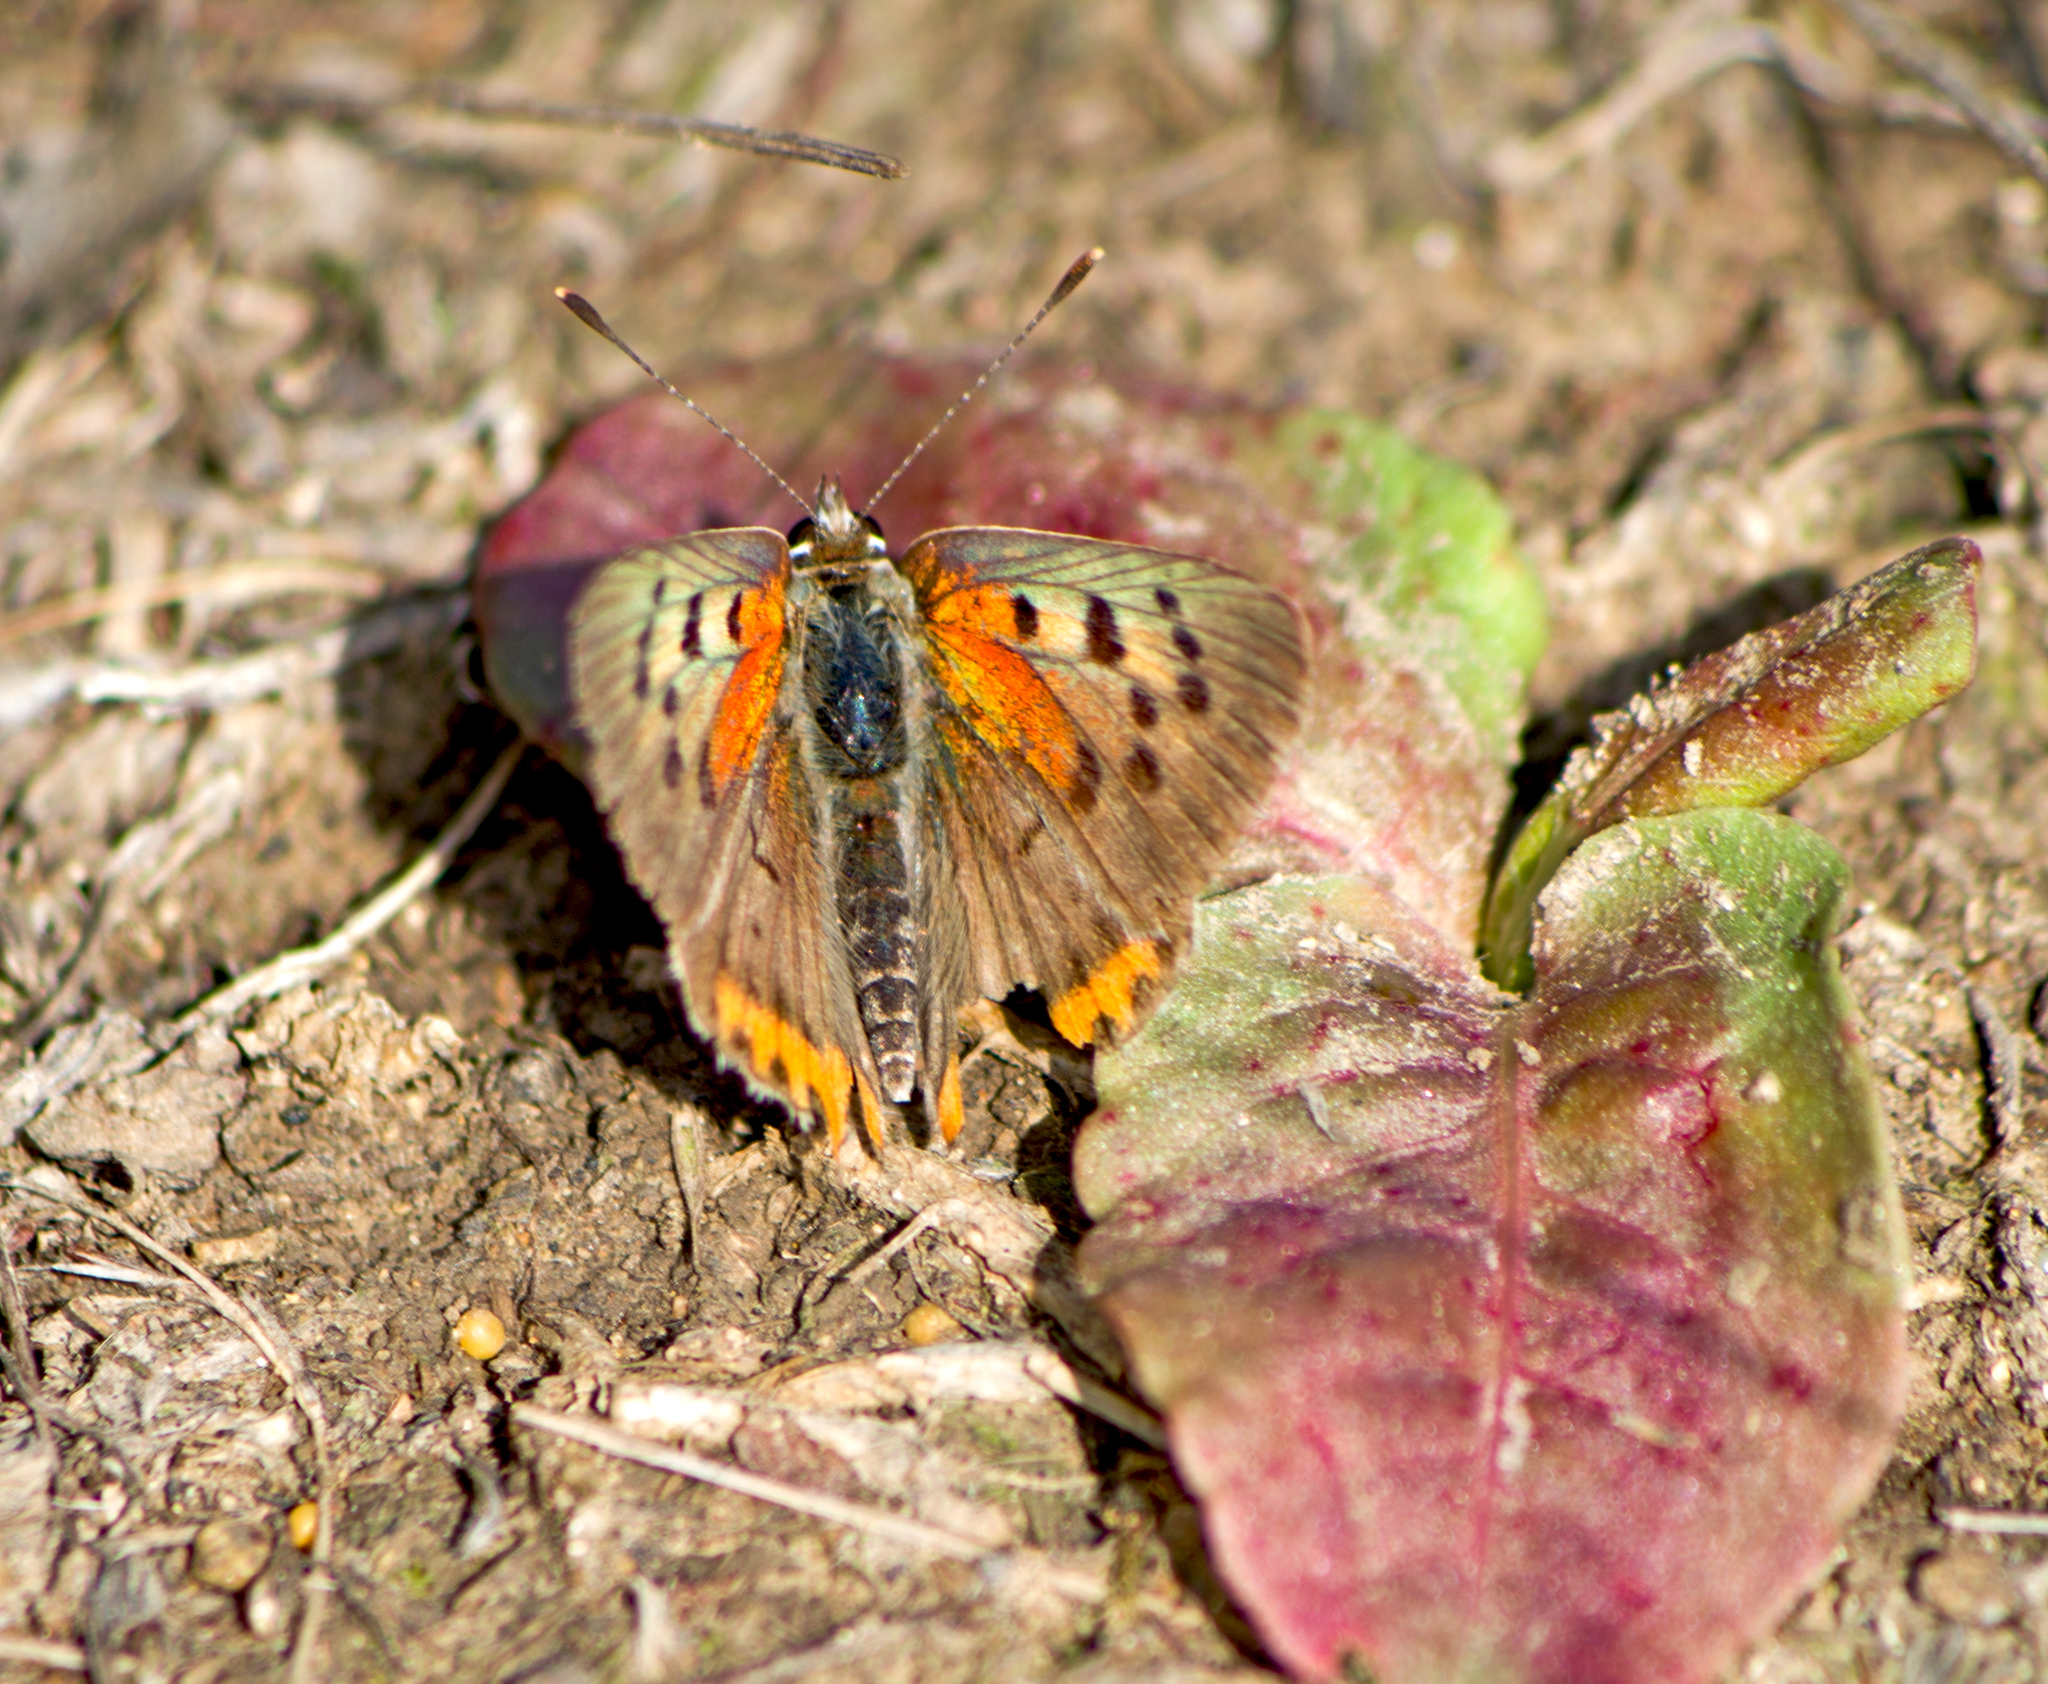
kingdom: Animalia
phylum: Arthropoda
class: Insecta
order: Lepidoptera
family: Lycaenidae
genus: Lycaena
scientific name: Lycaena phlaeas
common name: Small copper
